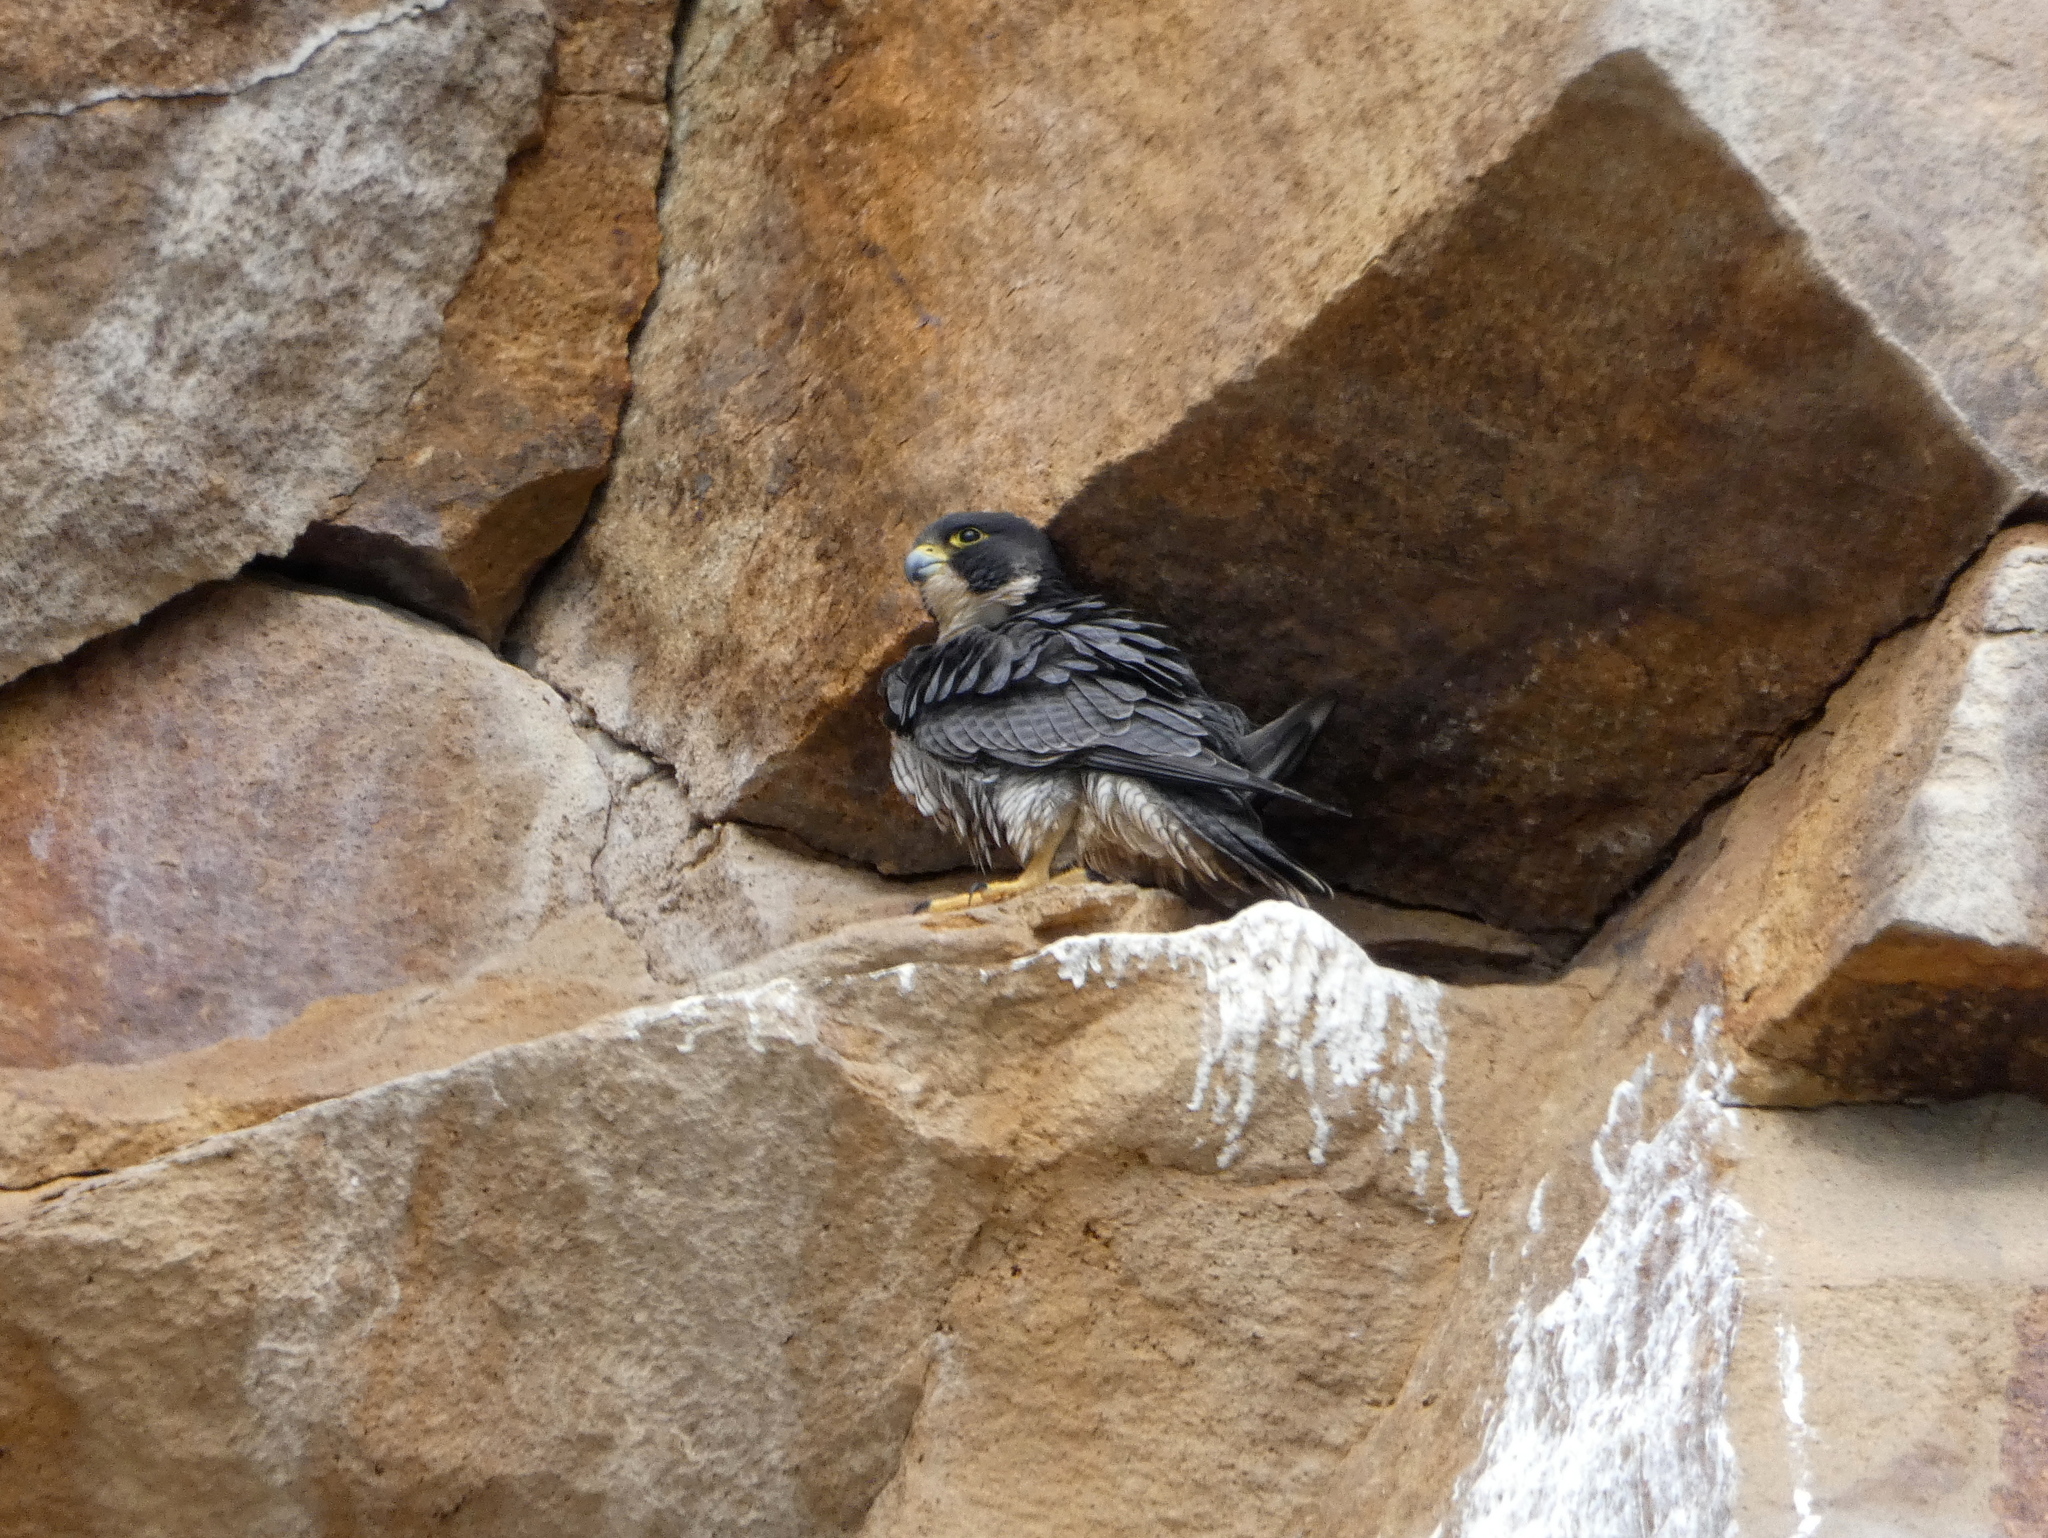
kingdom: Animalia
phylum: Chordata
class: Aves
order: Falconiformes
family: Falconidae
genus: Falco
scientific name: Falco peregrinus
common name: Peregrine falcon
